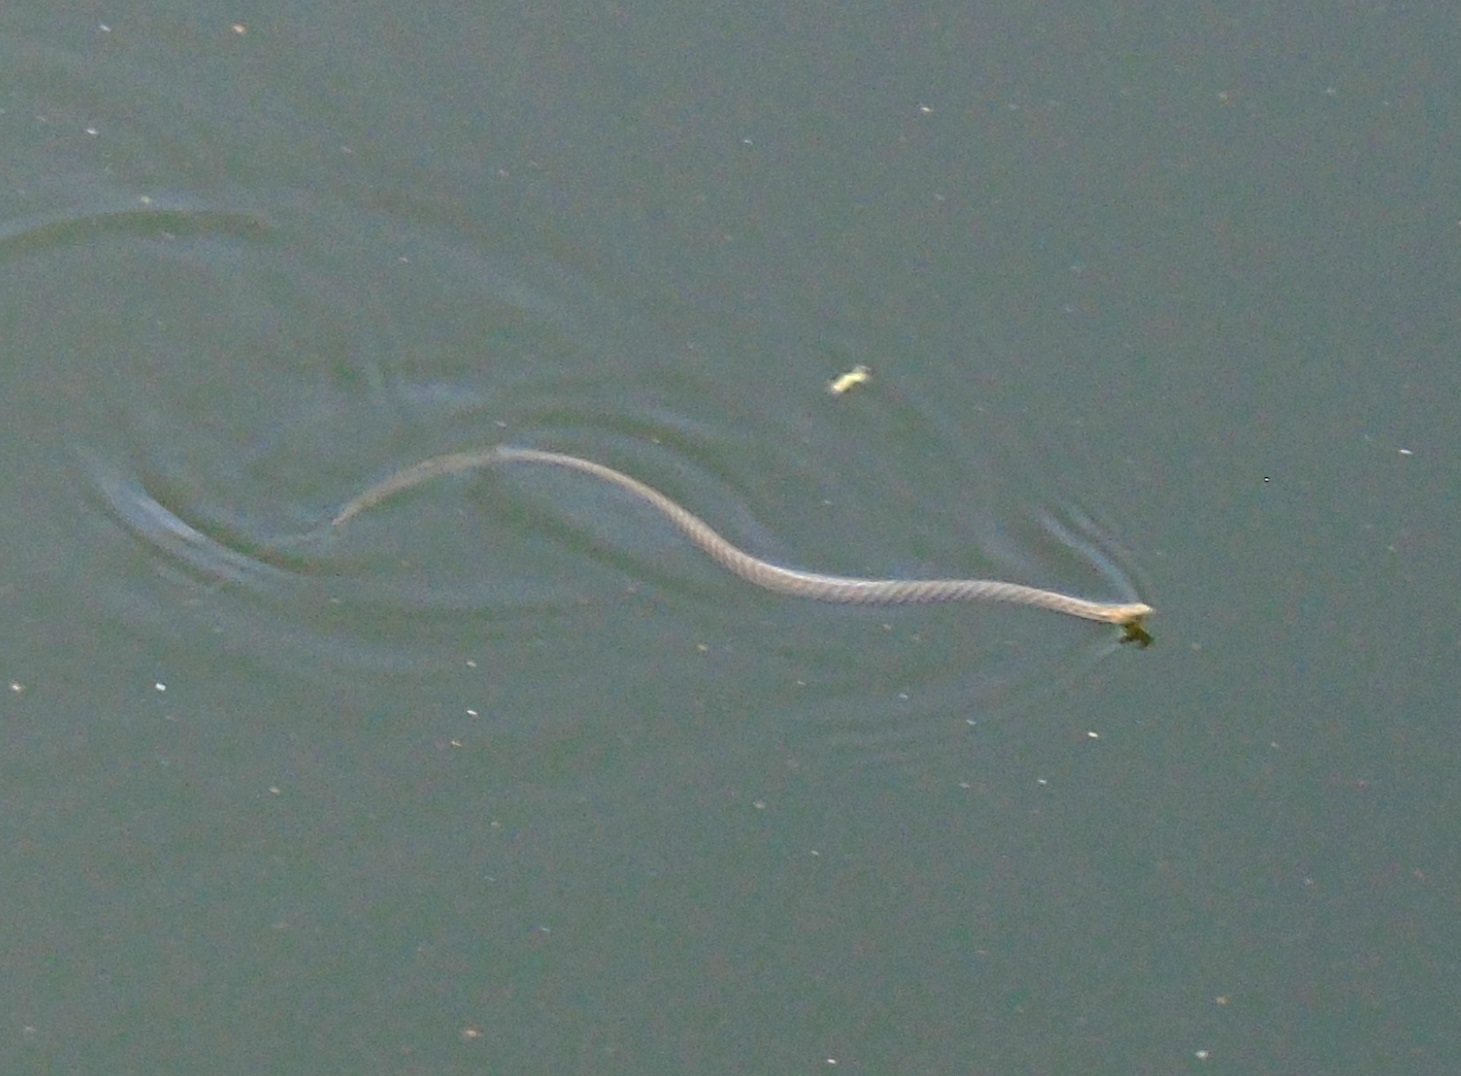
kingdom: Animalia
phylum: Chordata
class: Squamata
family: Colubridae
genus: Natrix
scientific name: Natrix tessellata
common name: Dice snake
